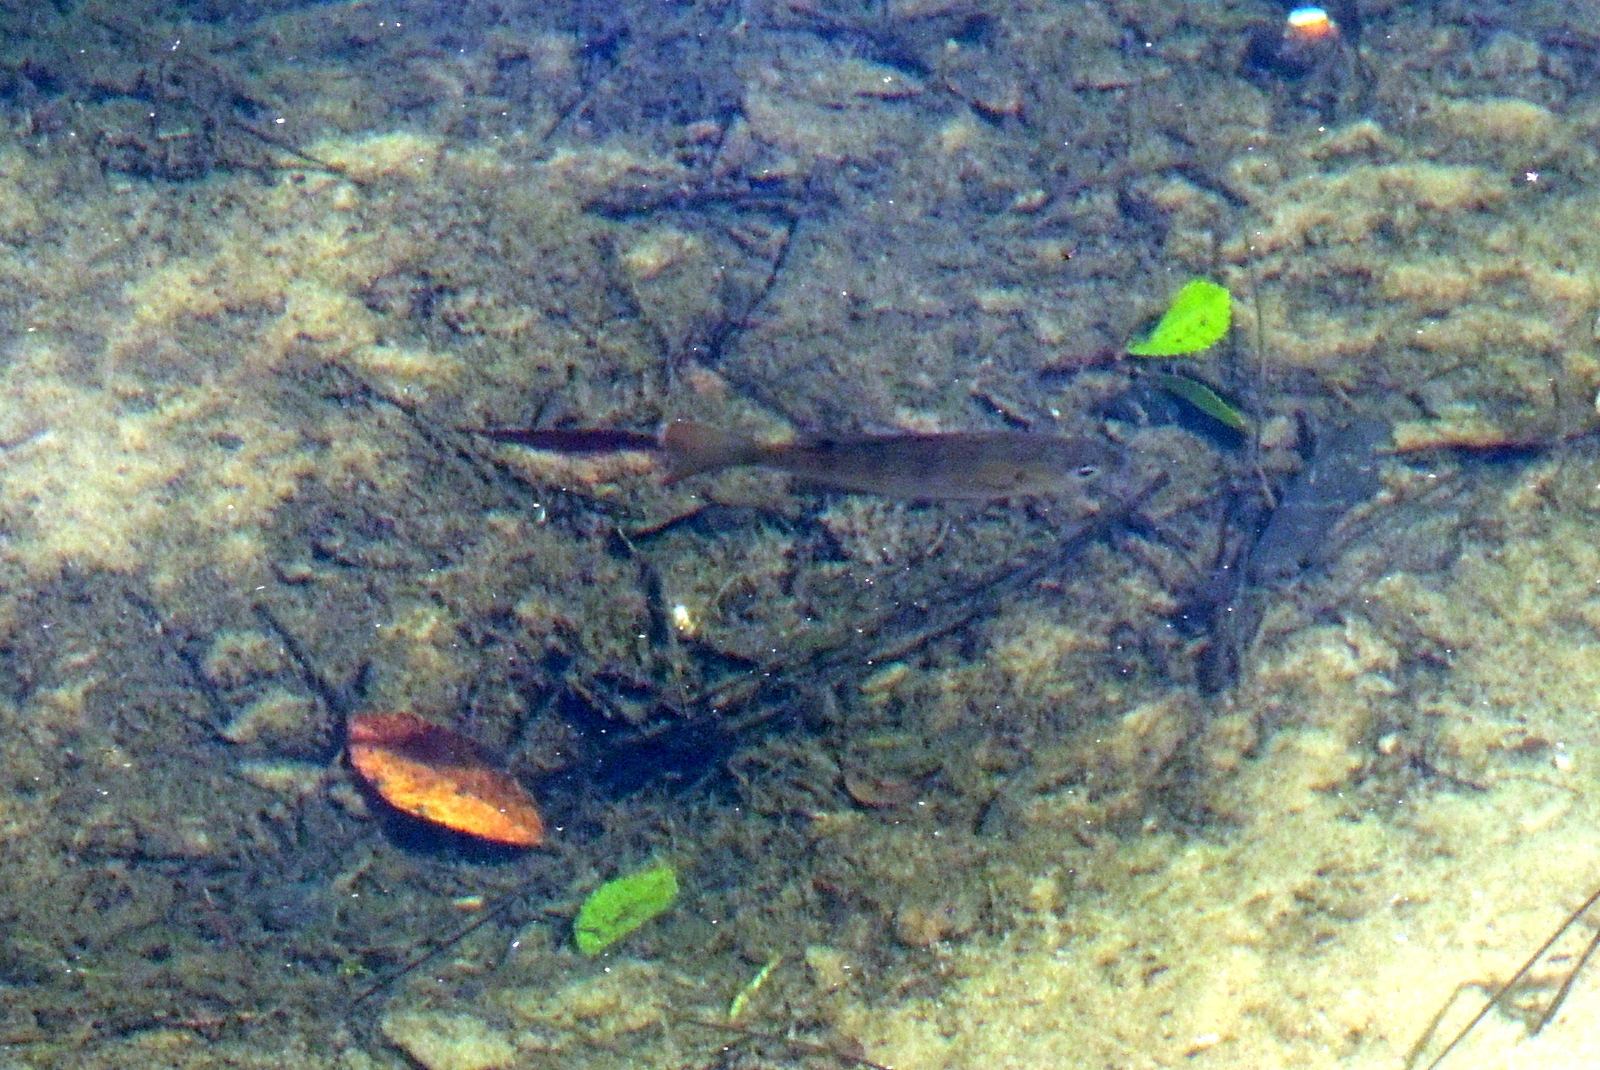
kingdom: Animalia
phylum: Chordata
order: Perciformes
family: Centrarchidae
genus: Lepomis
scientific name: Lepomis macrochirus
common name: Bluegill
